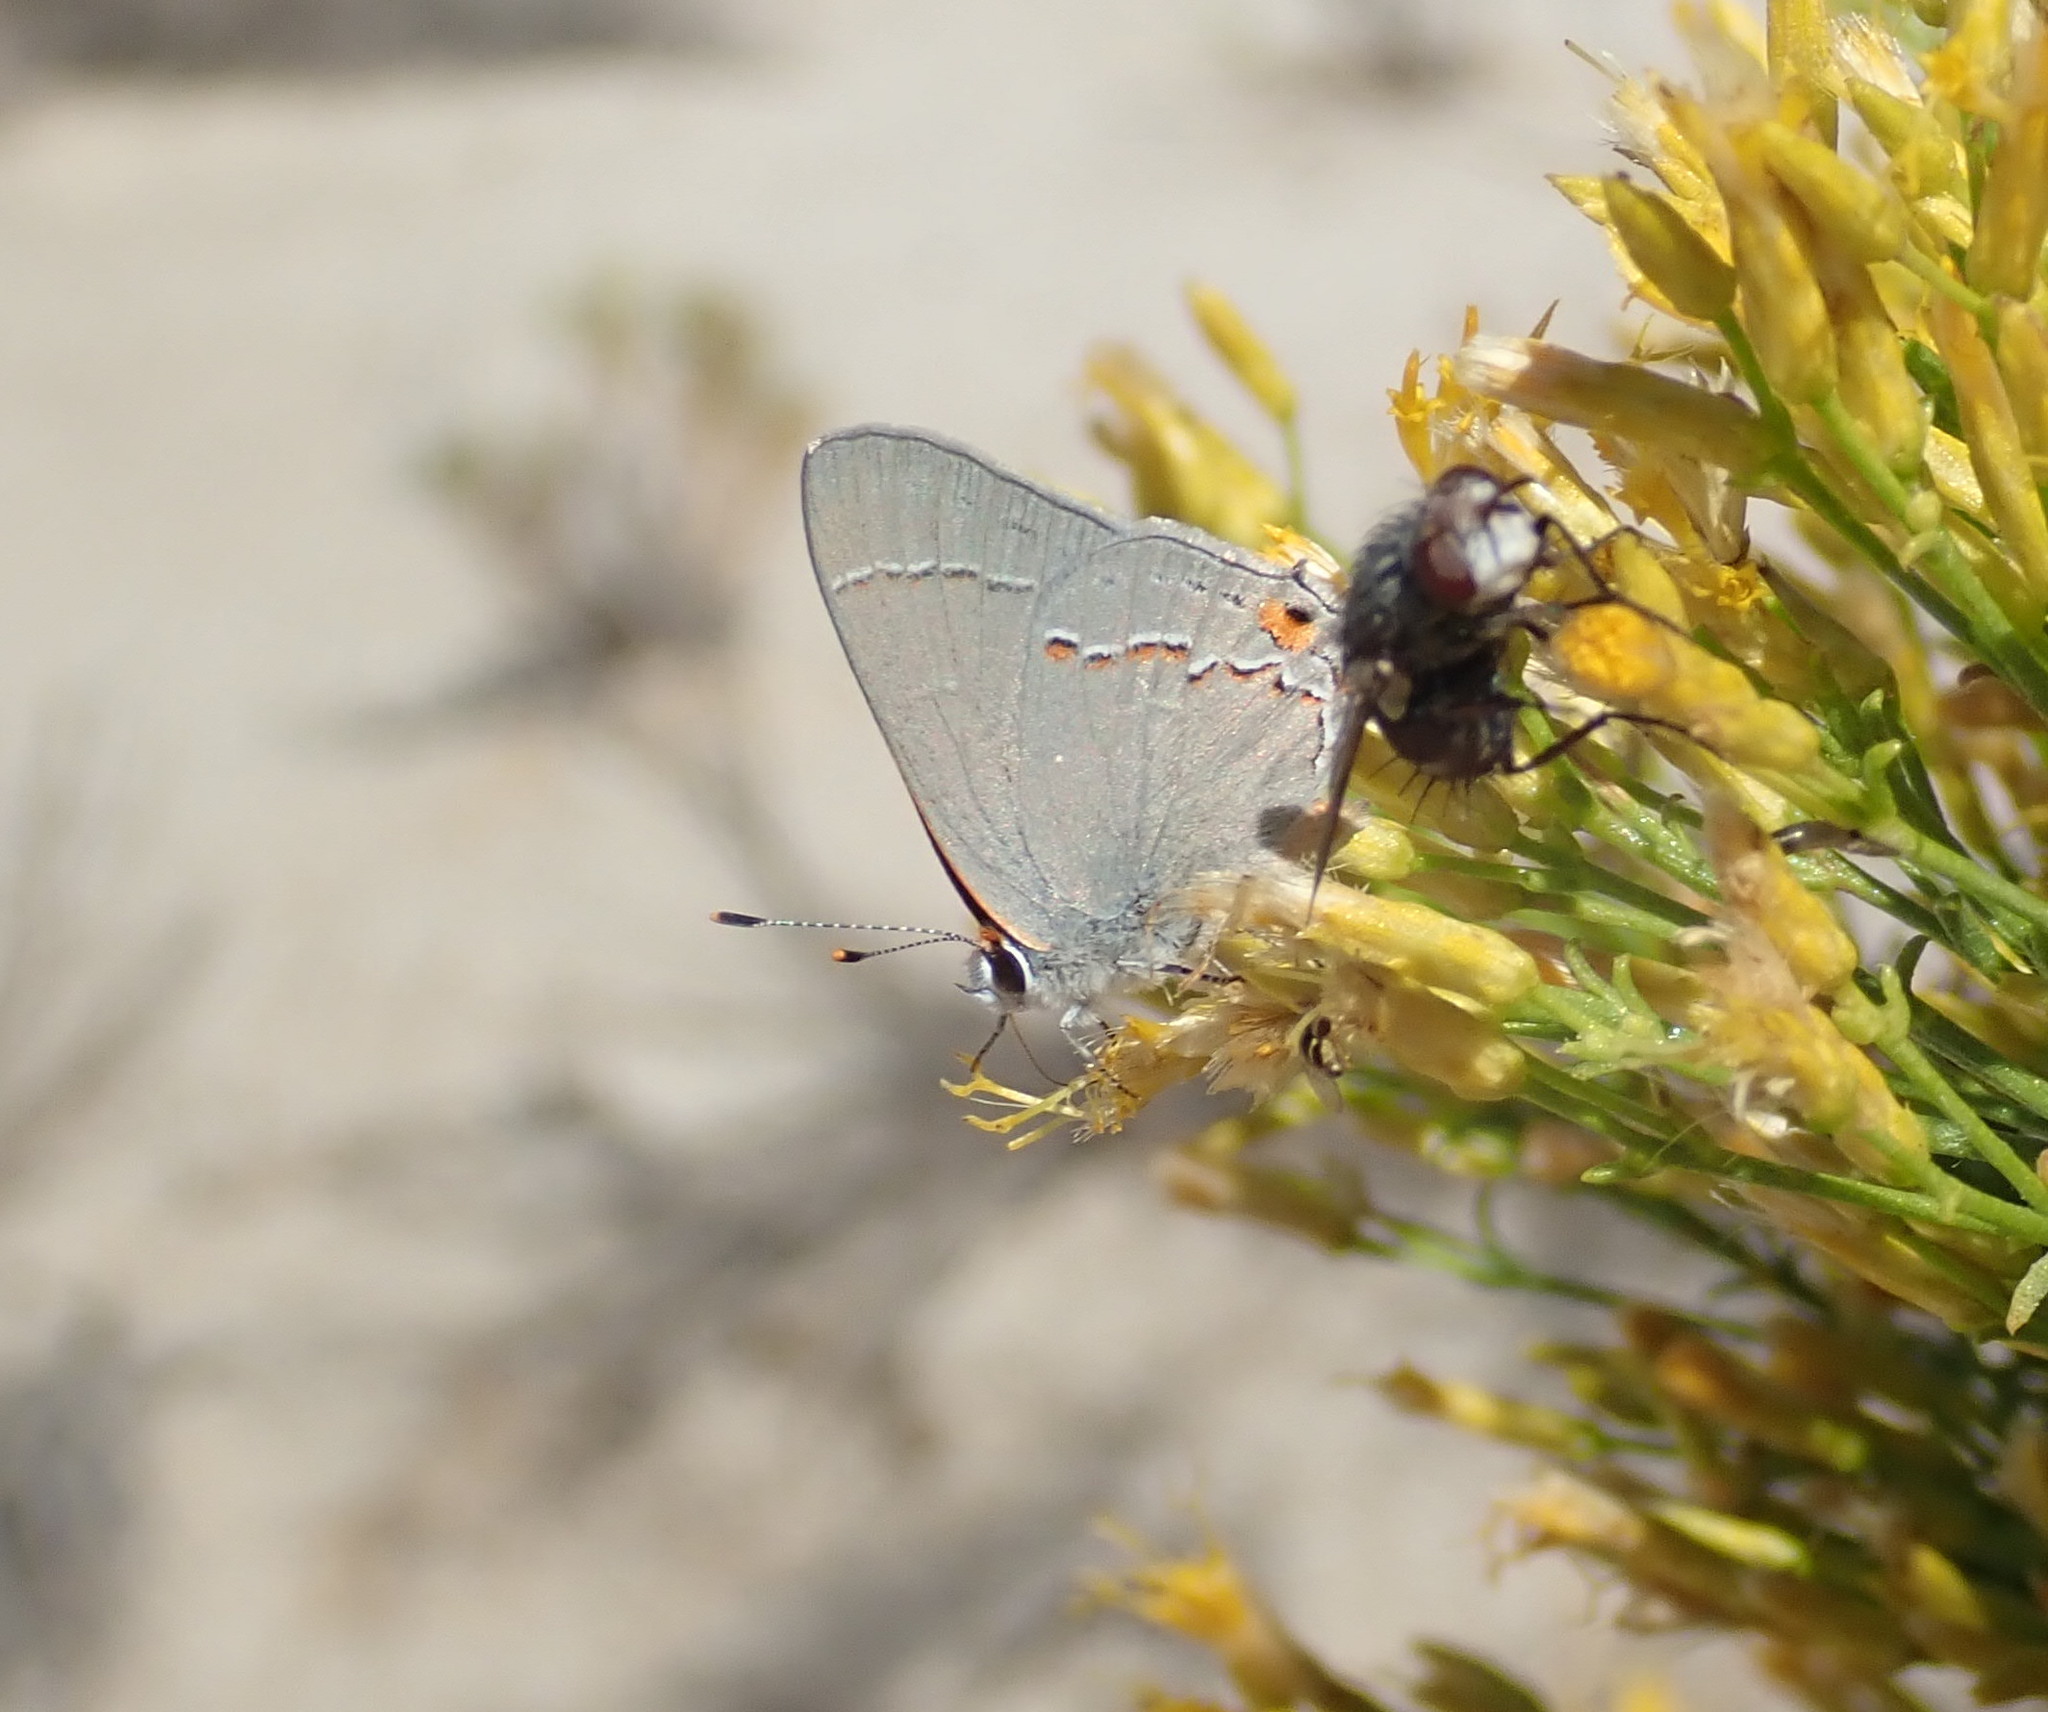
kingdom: Animalia
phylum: Arthropoda
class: Insecta
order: Lepidoptera
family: Lycaenidae
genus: Strymon
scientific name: Strymon melinus
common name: Gray hairstreak
